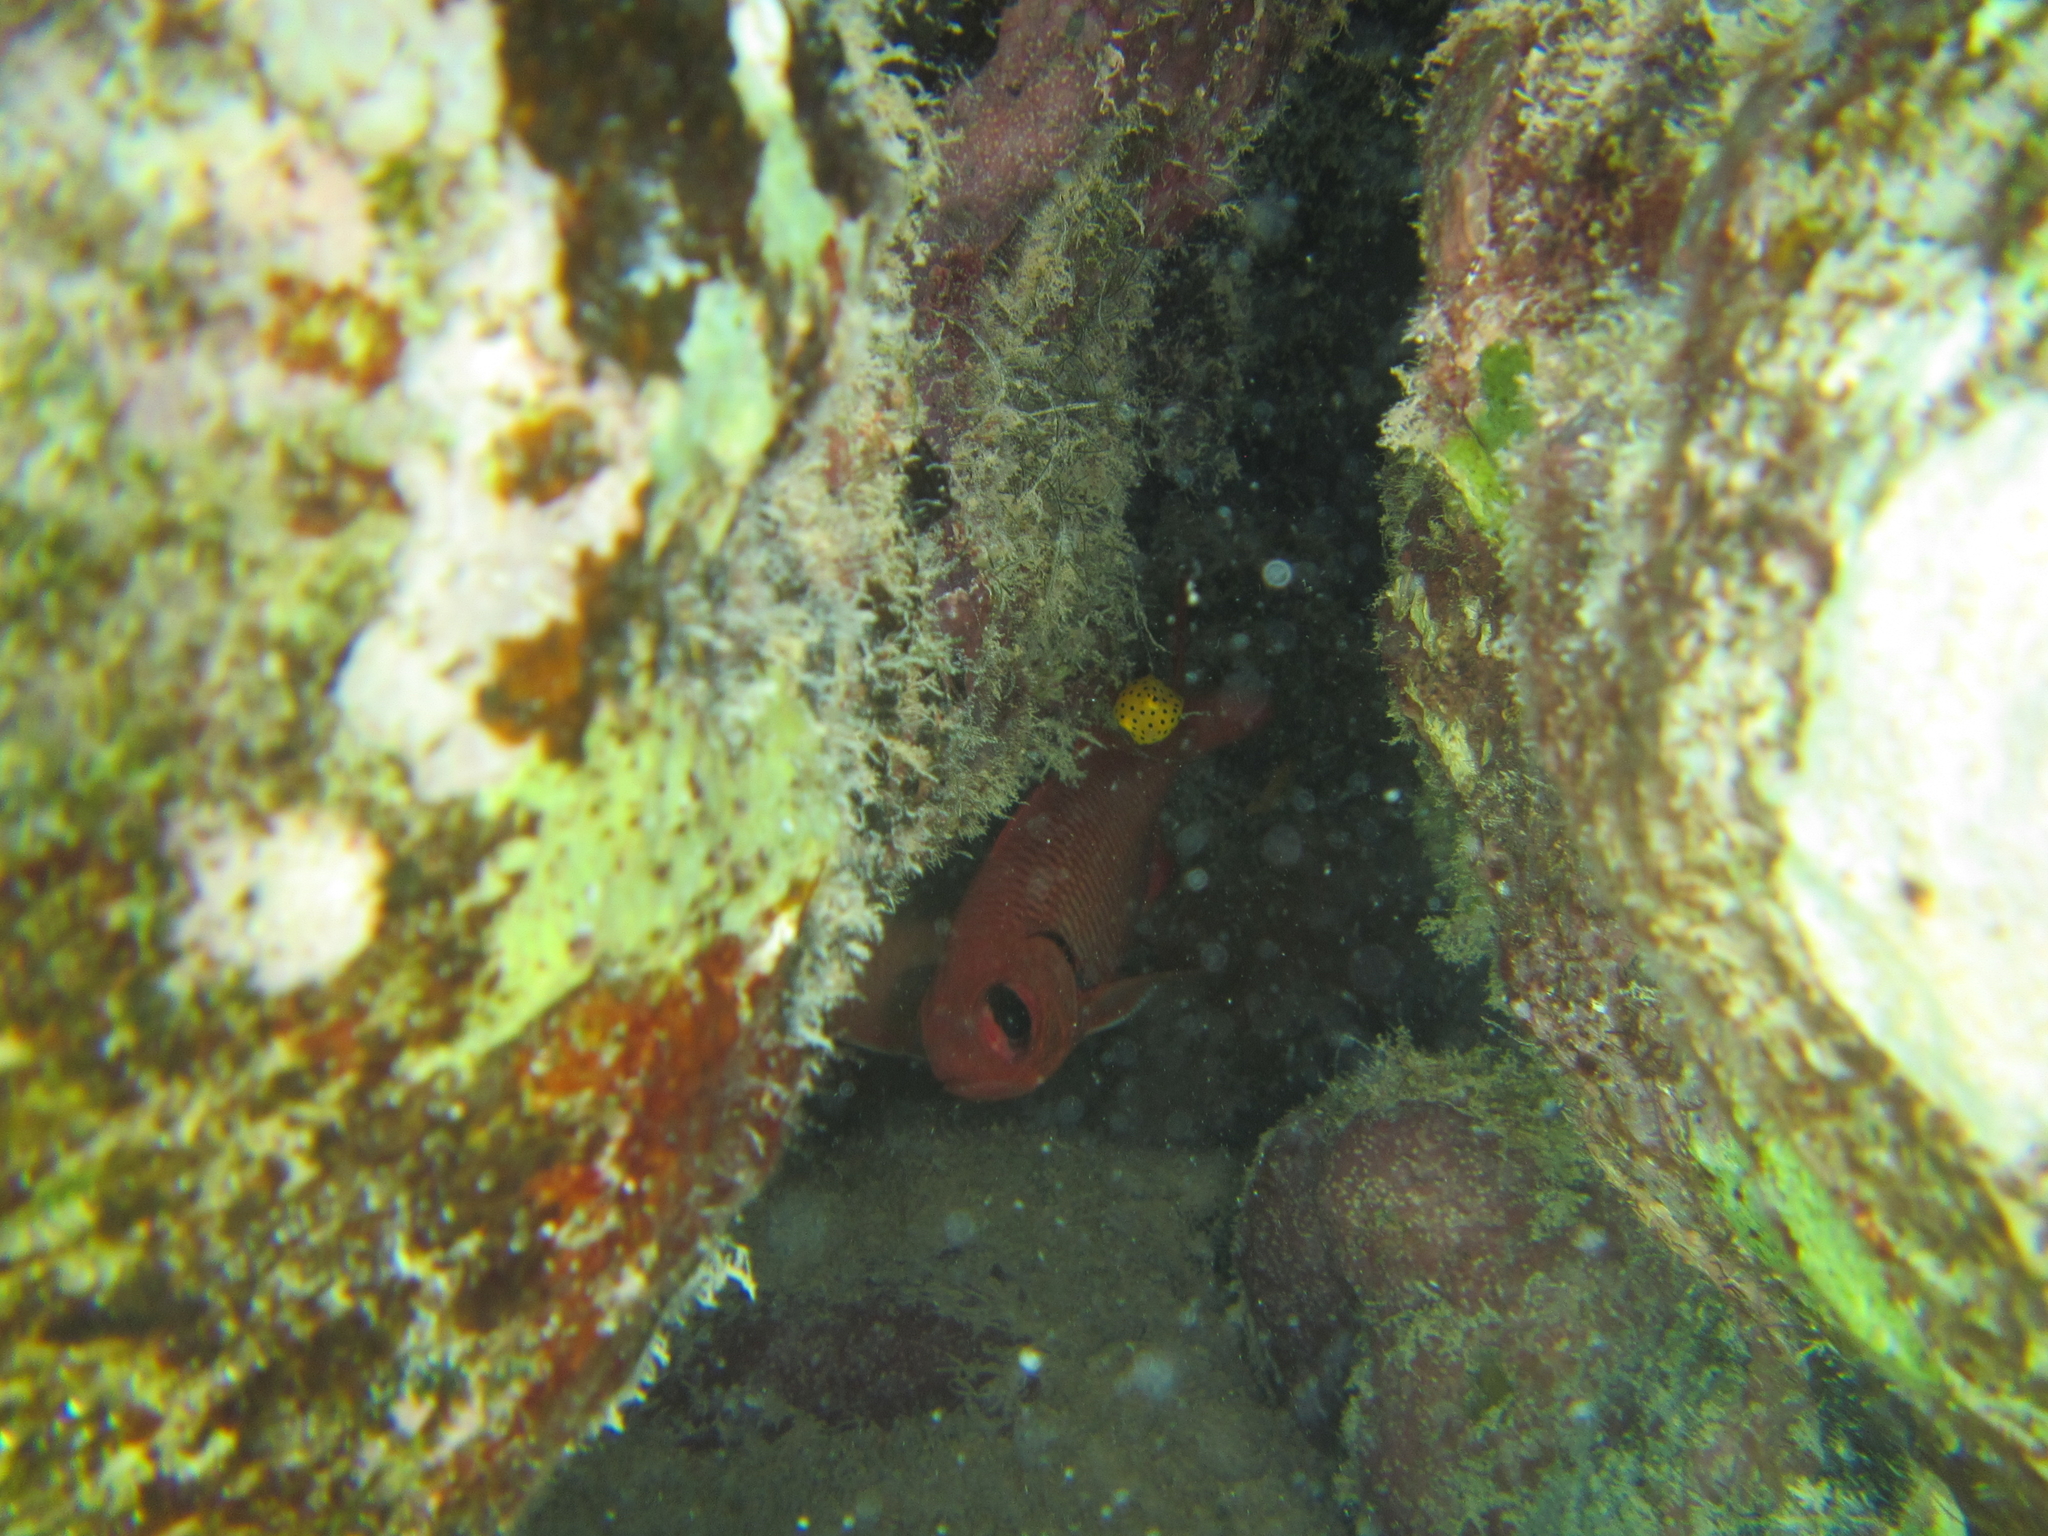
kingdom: Animalia
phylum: Chordata
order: Tetraodontiformes
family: Ostraciidae
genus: Ostracion
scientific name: Ostracion cubicus
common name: Cube trunkfish
